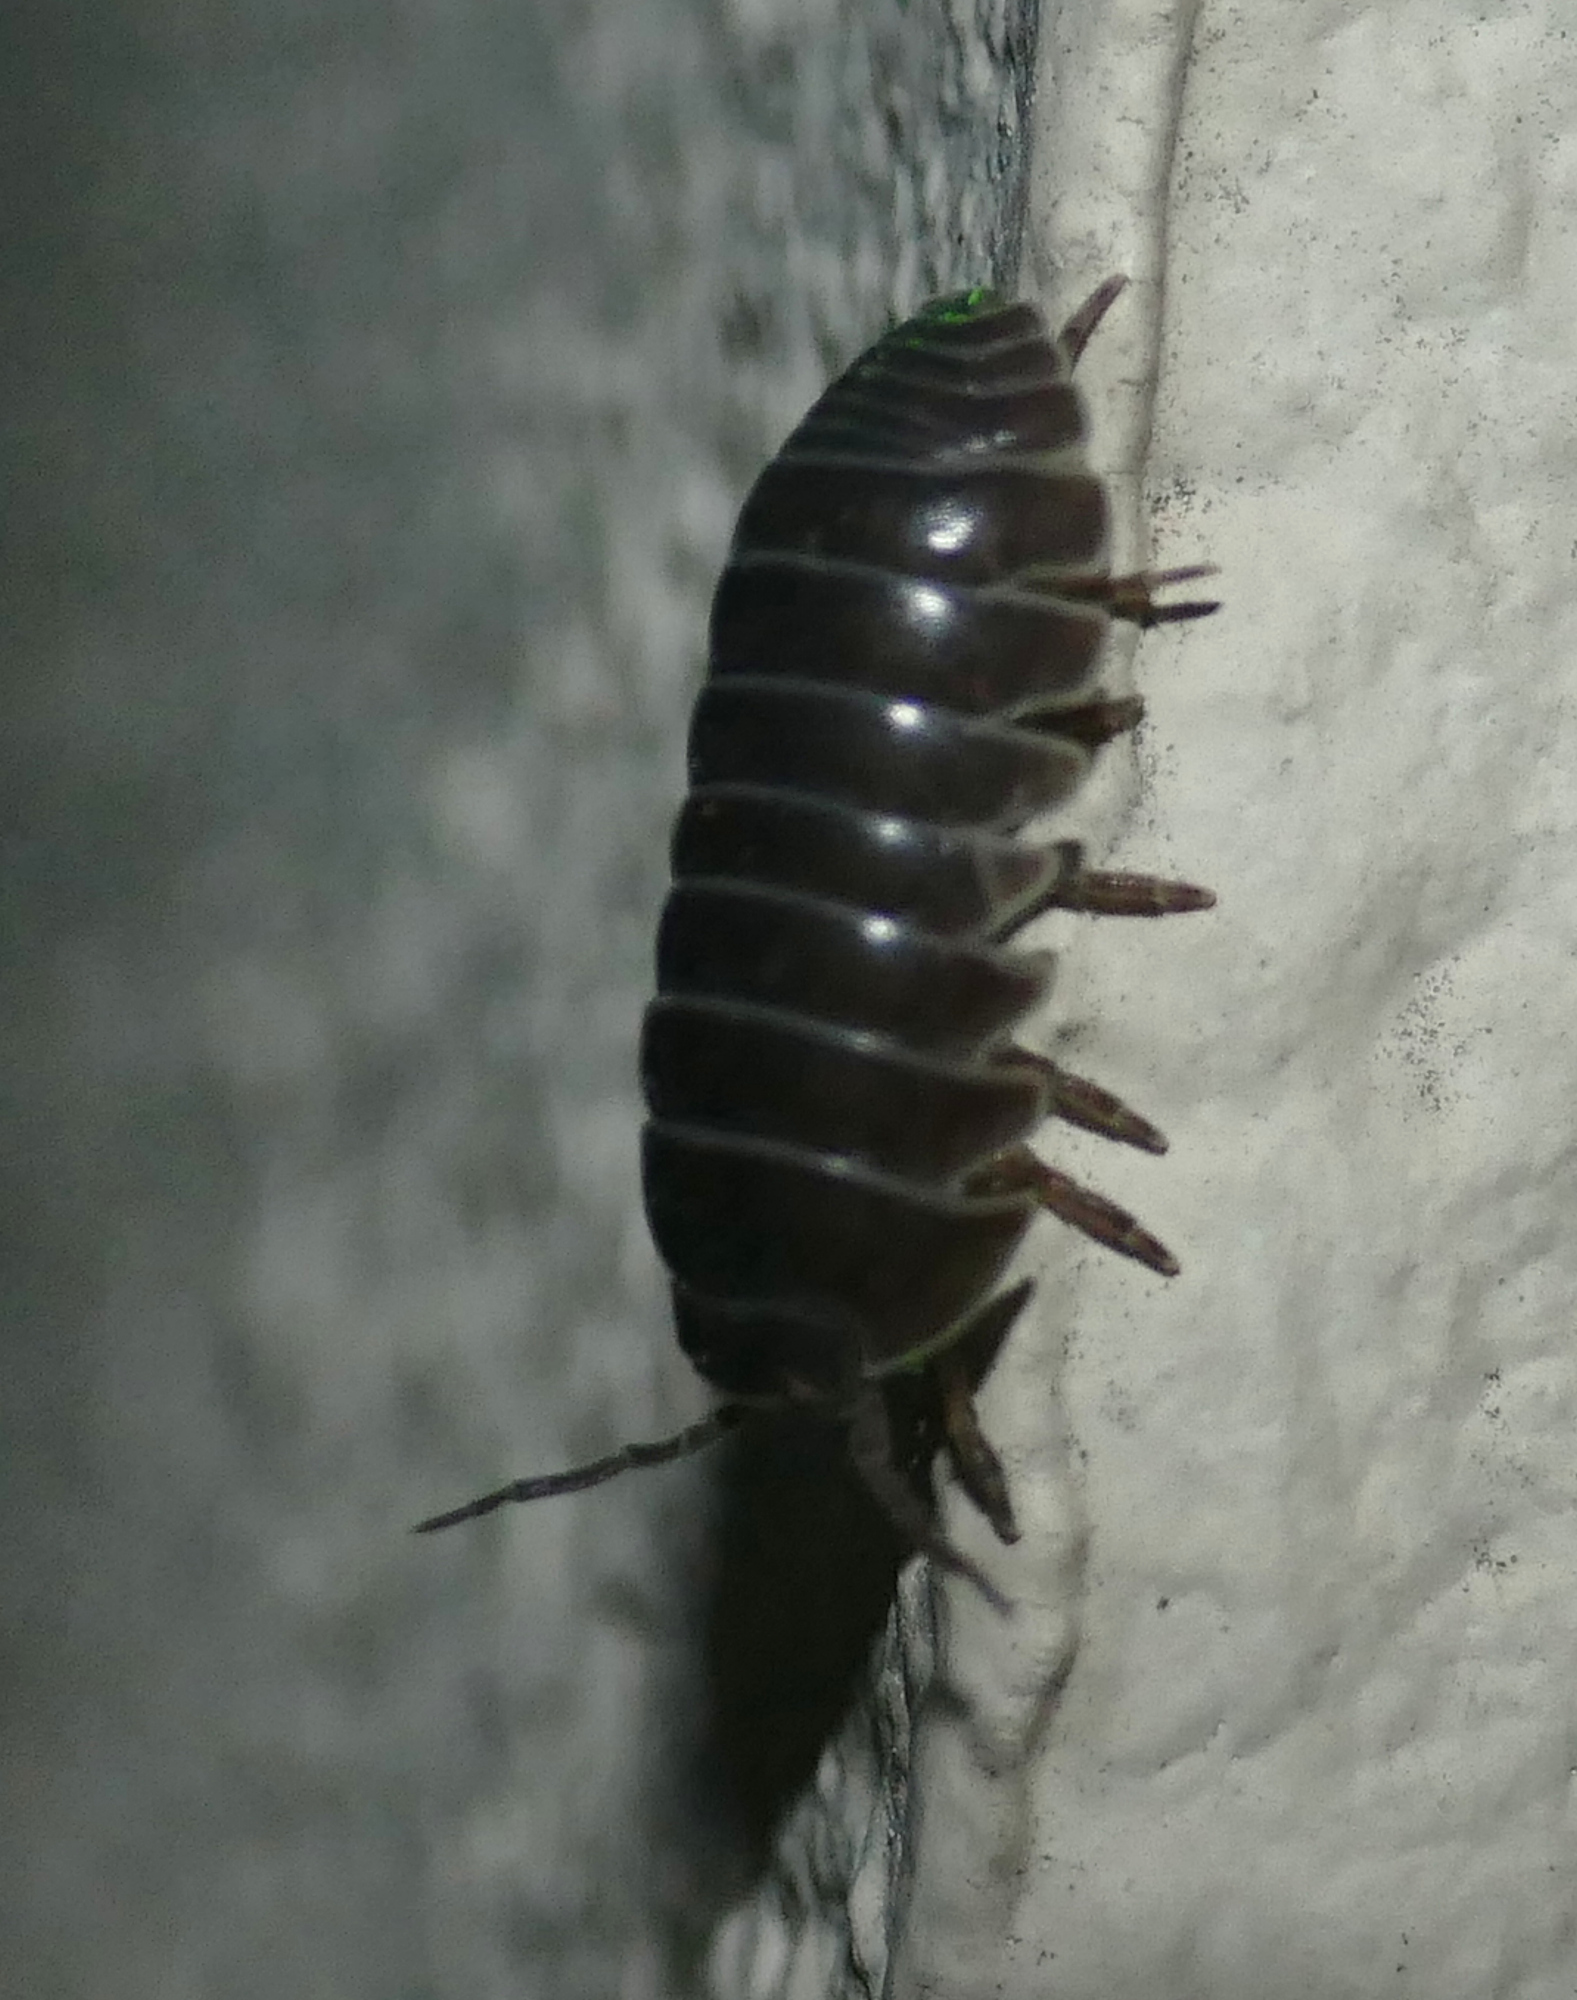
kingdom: Animalia
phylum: Arthropoda
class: Malacostraca
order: Isopoda
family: Armadillidiidae
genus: Armadillidium
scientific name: Armadillidium vulgare
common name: Common pill woodlouse
